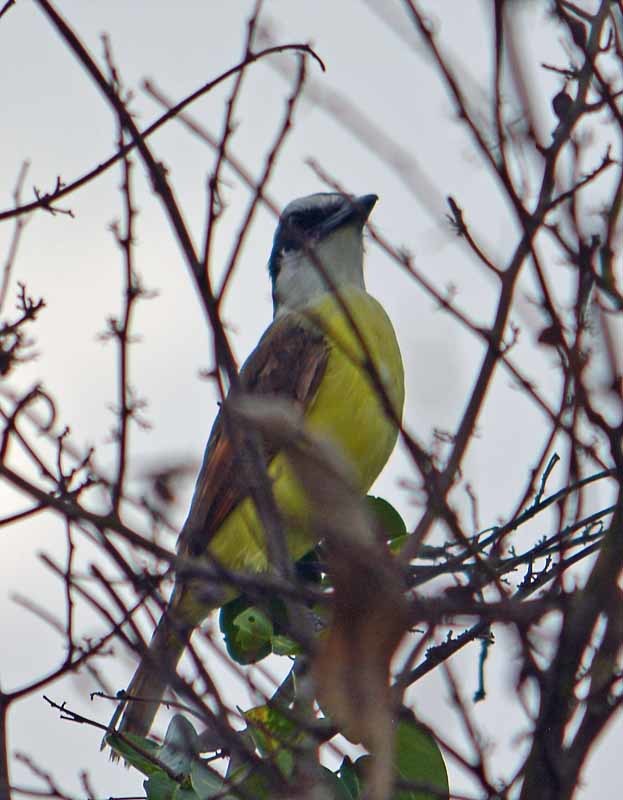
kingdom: Animalia
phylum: Chordata
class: Aves
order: Passeriformes
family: Tyrannidae
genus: Pitangus
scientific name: Pitangus sulphuratus
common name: Great kiskadee
